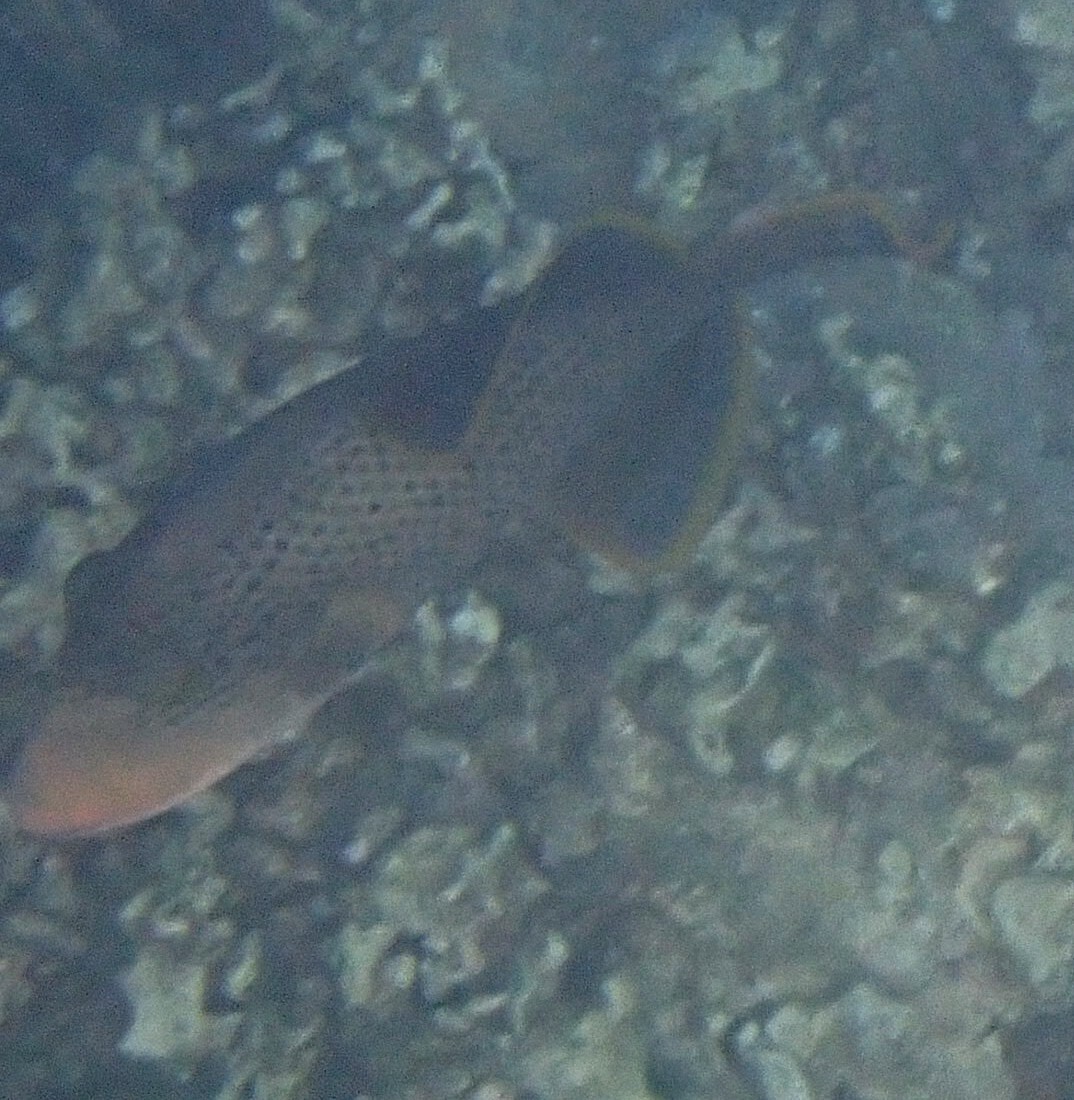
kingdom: Animalia
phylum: Chordata
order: Tetraodontiformes
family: Balistidae
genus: Pseudobalistes
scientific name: Pseudobalistes flavimarginatus
